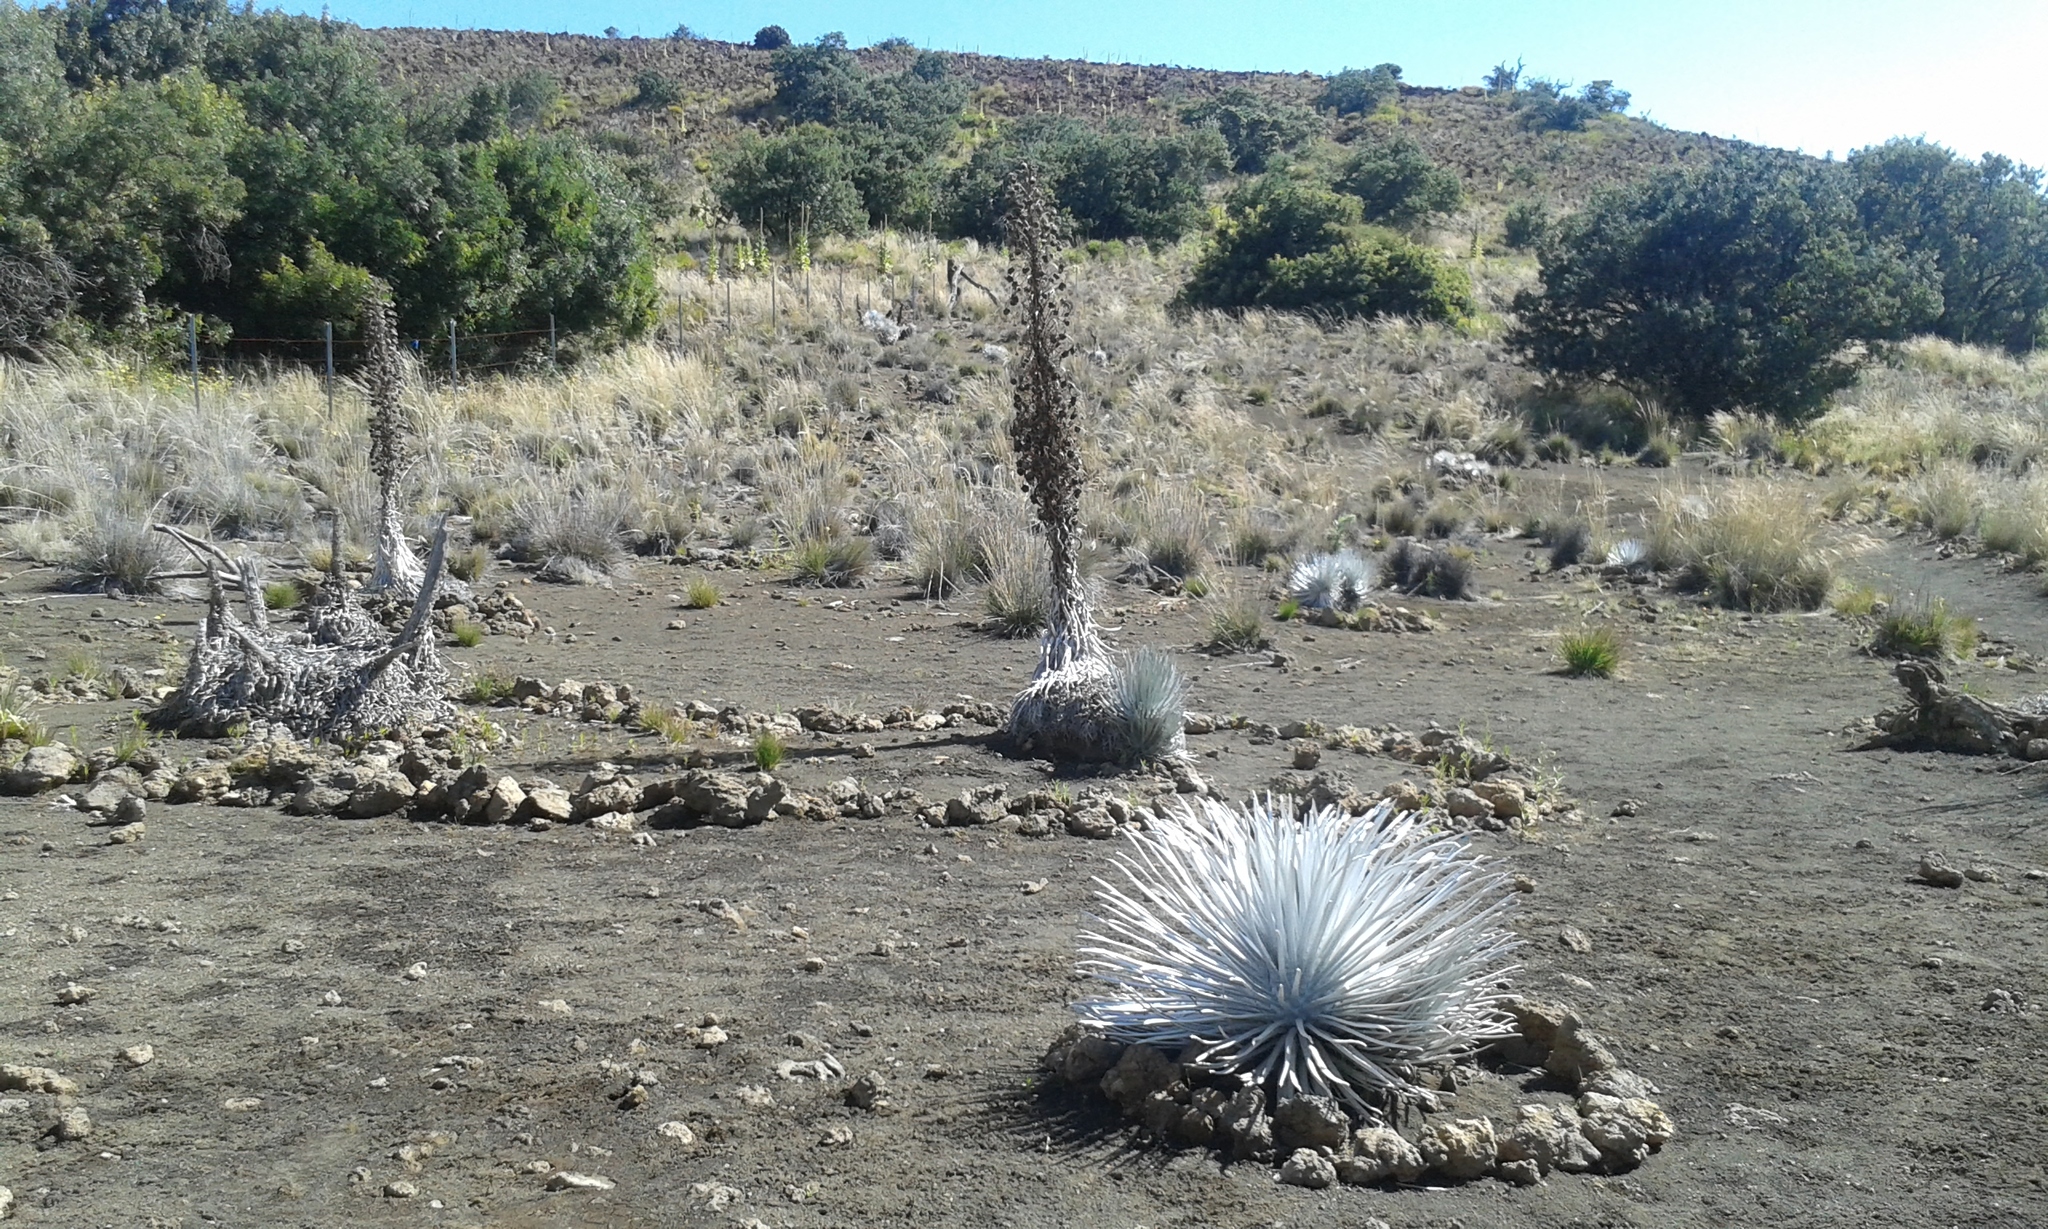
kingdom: Plantae
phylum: Tracheophyta
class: Magnoliopsida
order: Asterales
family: Asteraceae
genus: Argyroxiphium
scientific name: Argyroxiphium sandwicense
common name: Silversword
